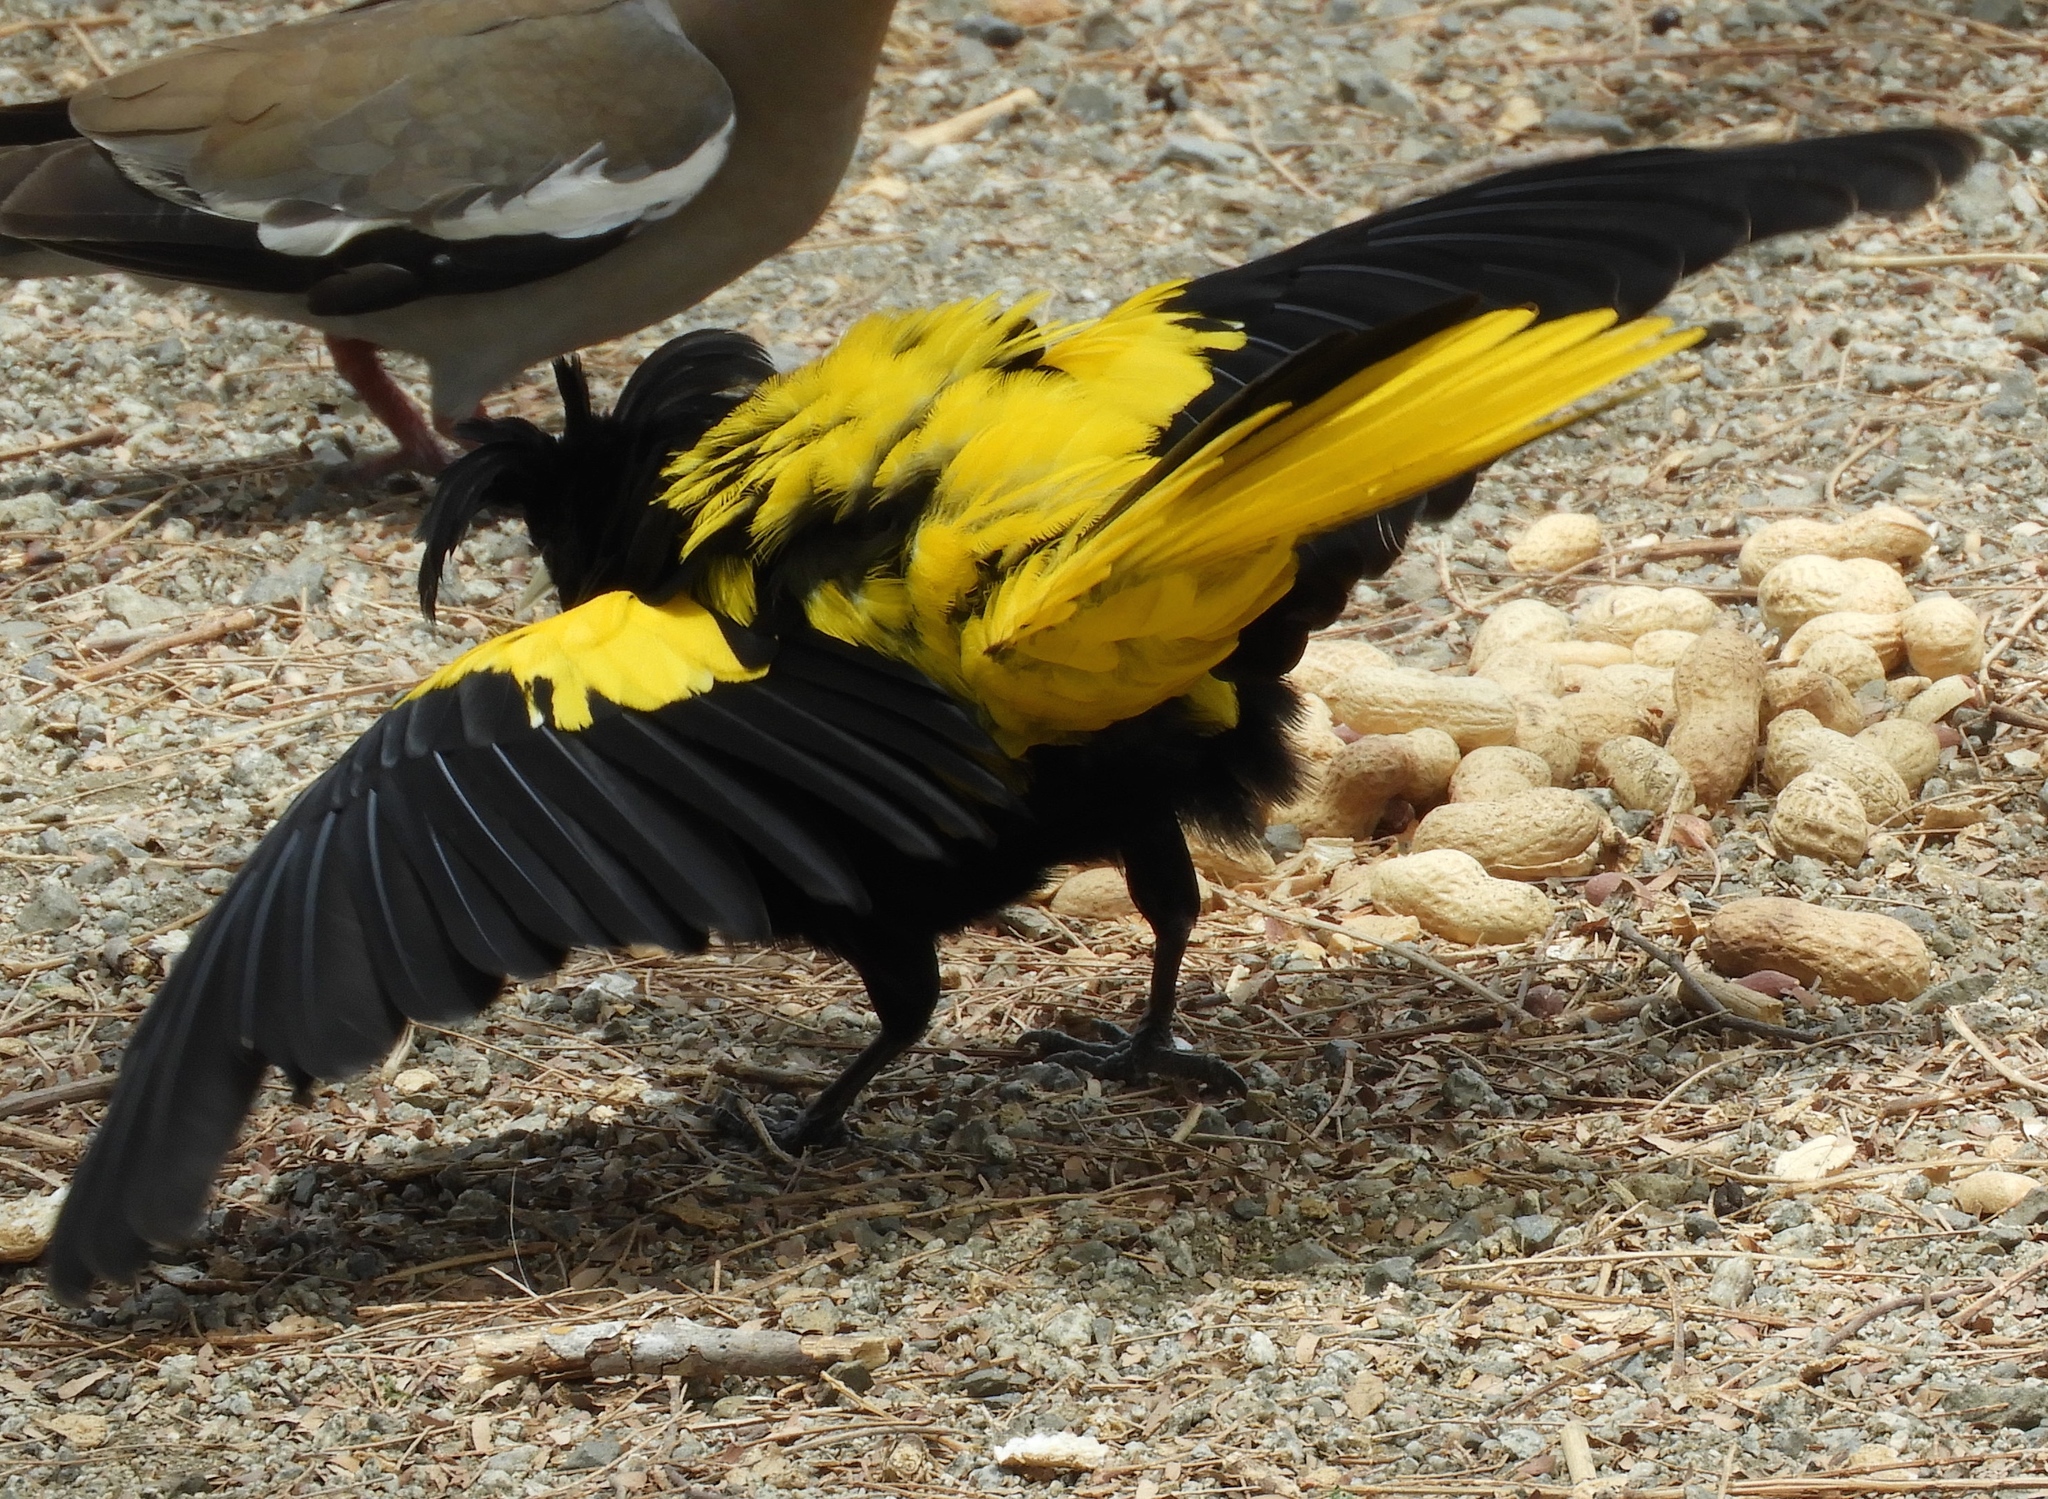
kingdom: Animalia
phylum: Chordata
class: Aves
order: Passeriformes
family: Icteridae
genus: Cacicus
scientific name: Cacicus melanicterus
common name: Yellow-winged cacique
